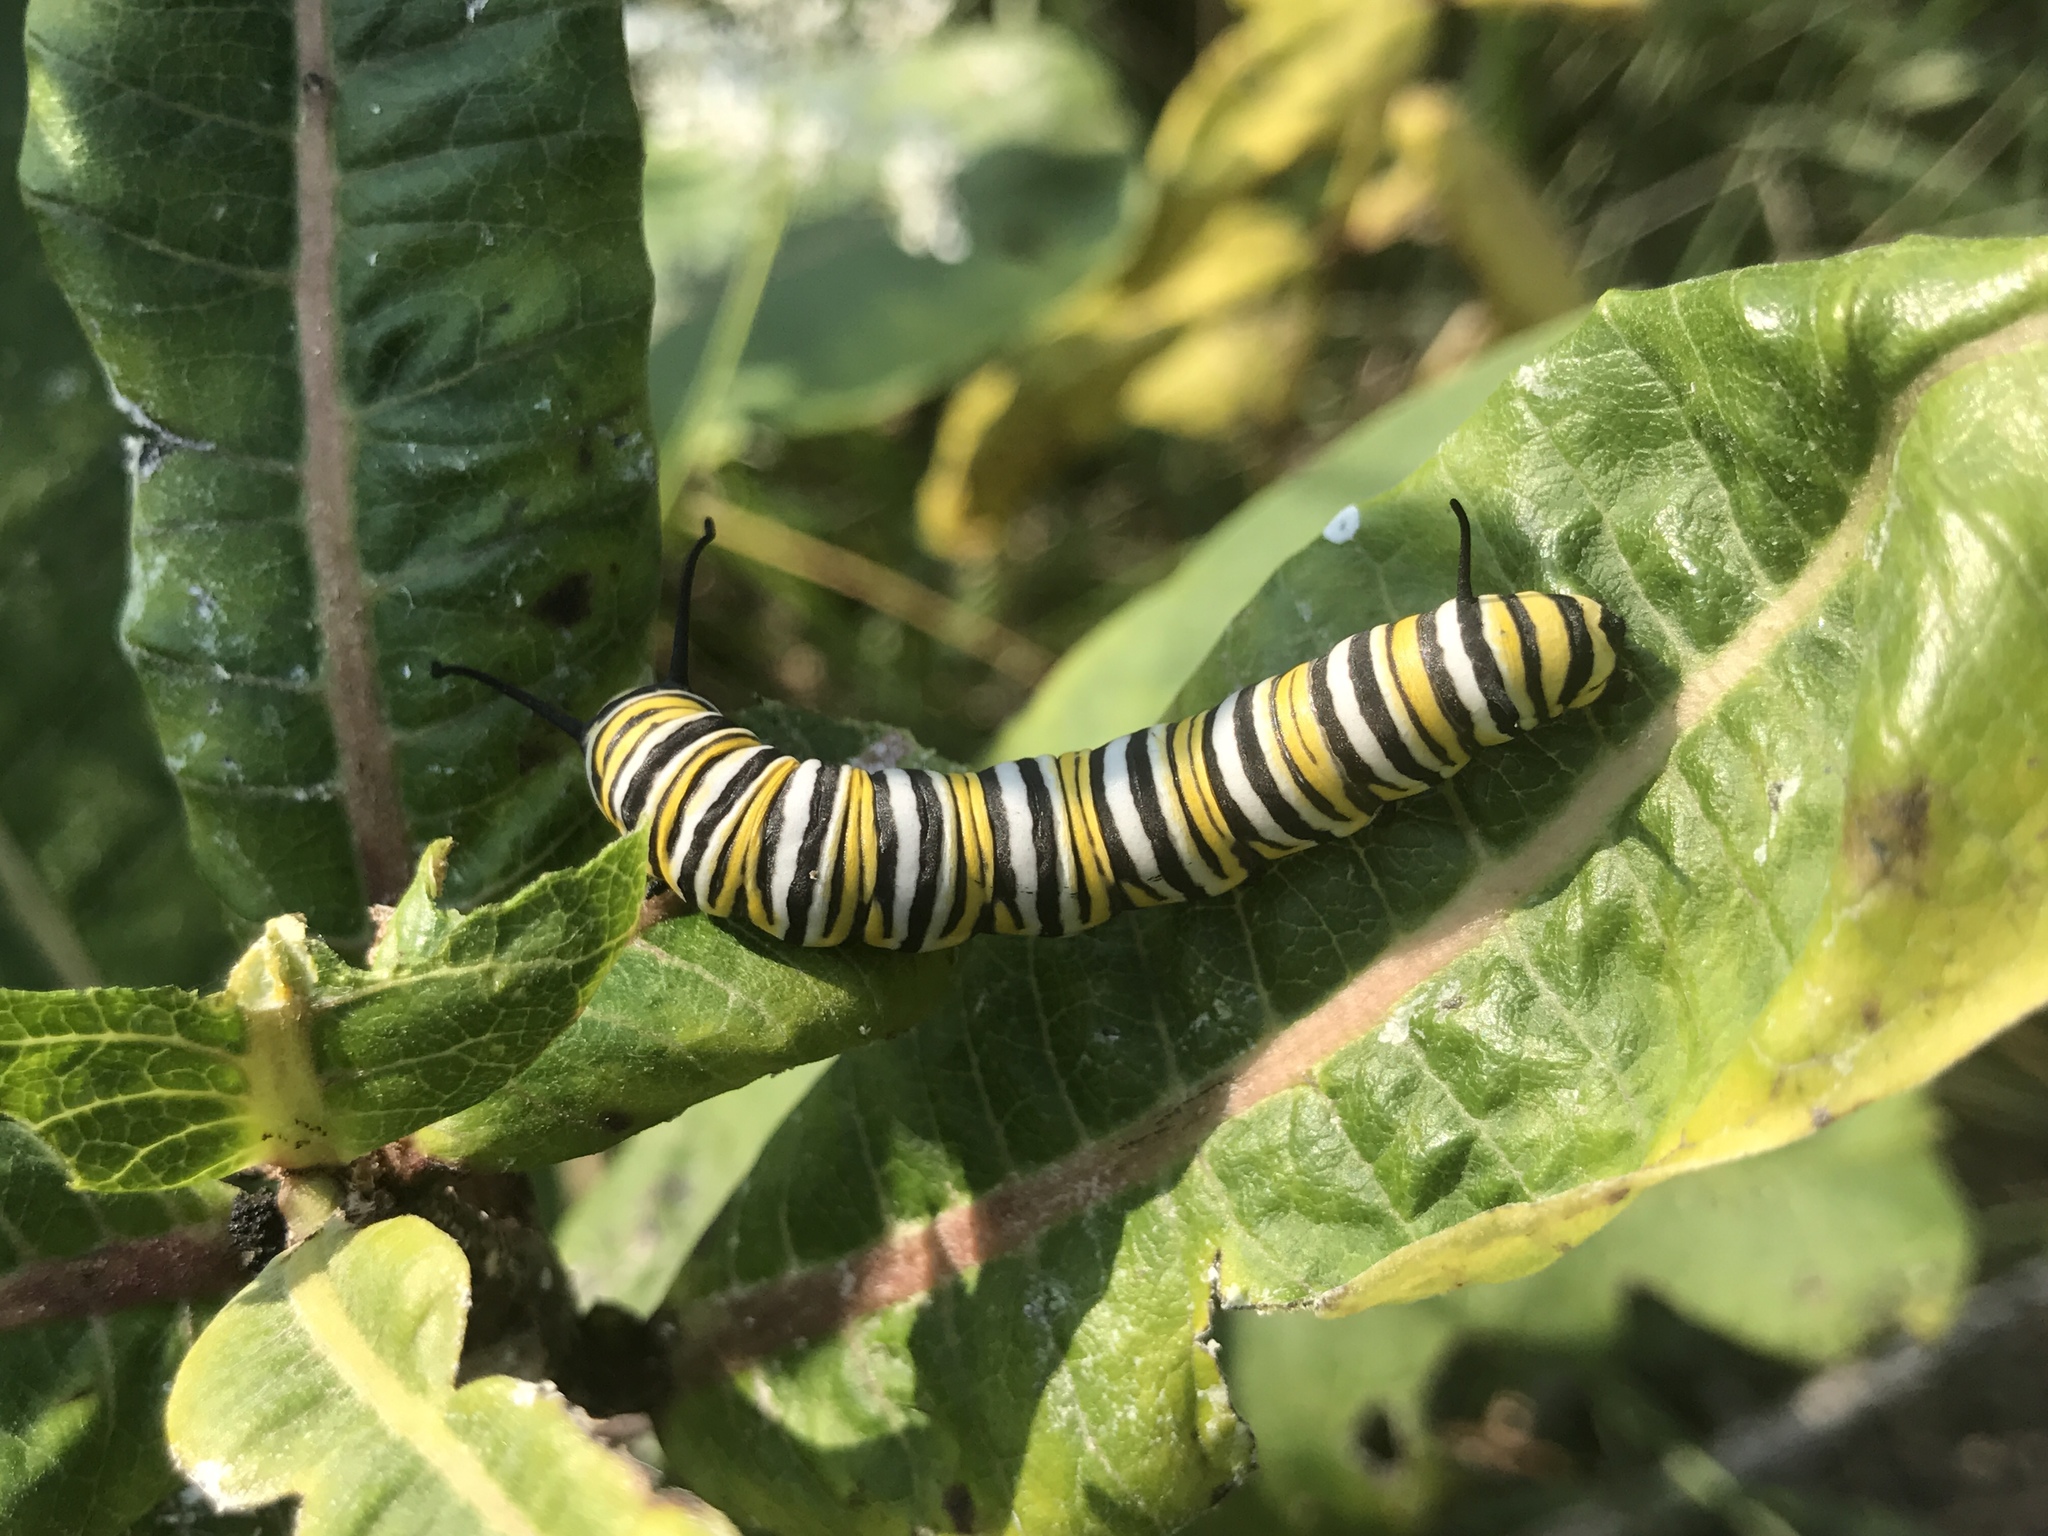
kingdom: Animalia
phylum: Arthropoda
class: Insecta
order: Lepidoptera
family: Nymphalidae
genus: Danaus
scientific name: Danaus plexippus
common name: Monarch
